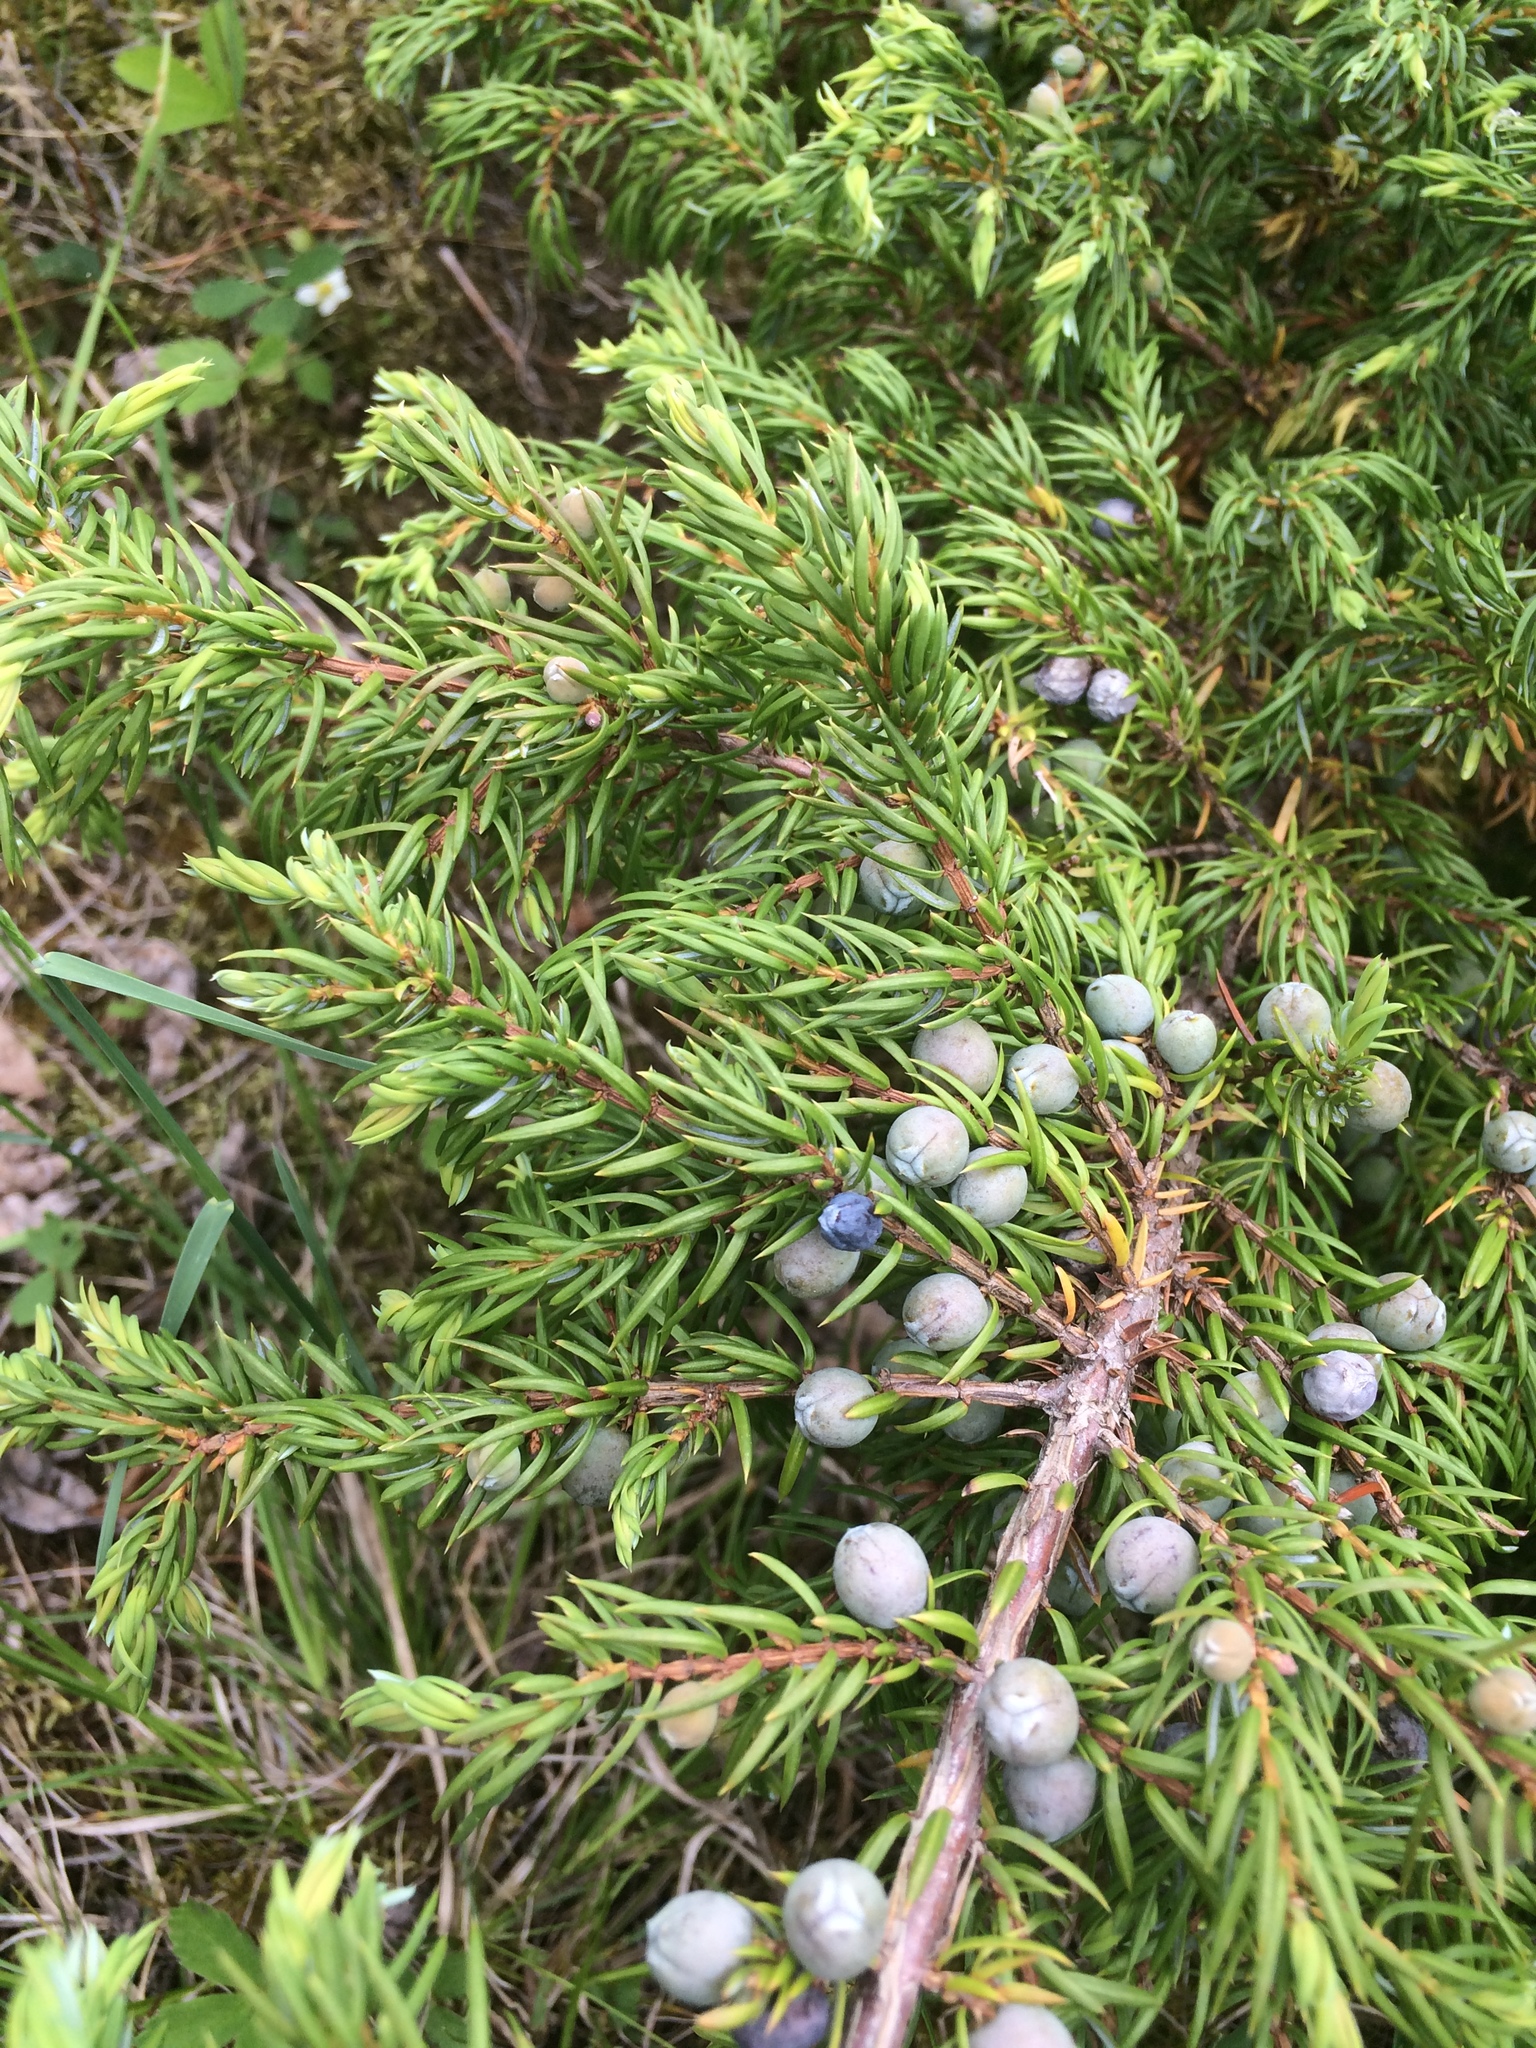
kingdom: Plantae
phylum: Tracheophyta
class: Pinopsida
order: Pinales
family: Cupressaceae
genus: Juniperus
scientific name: Juniperus communis
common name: Common juniper
